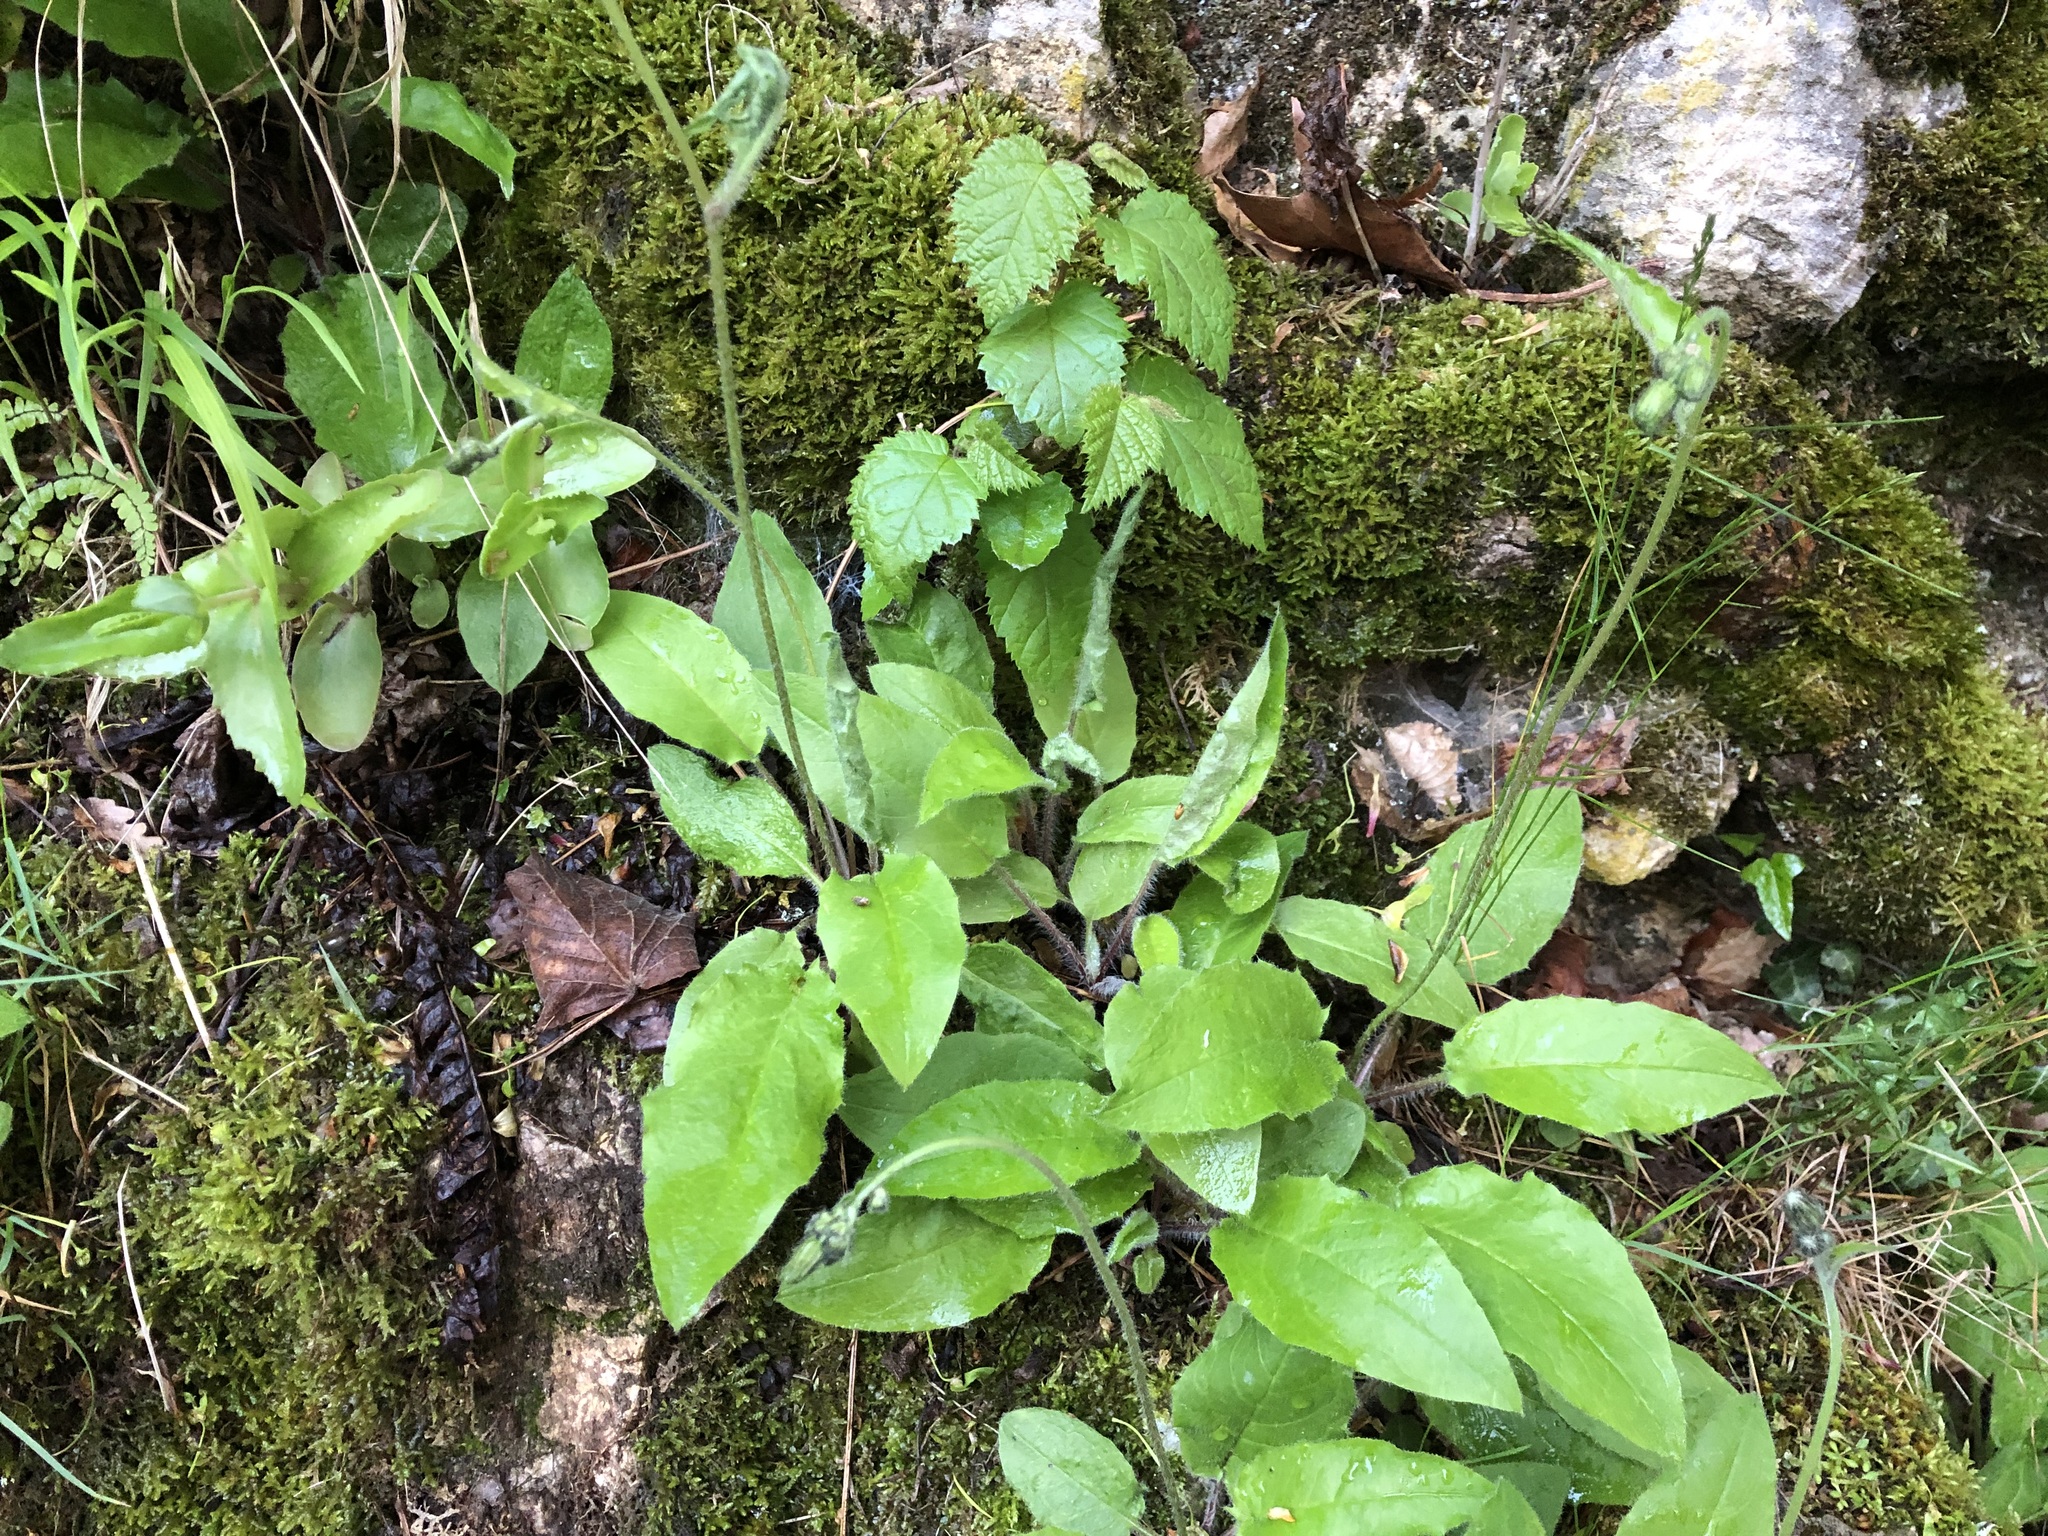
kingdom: Plantae
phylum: Tracheophyta
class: Magnoliopsida
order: Asterales
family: Asteraceae
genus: Hieracium
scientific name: Hieracium murorum
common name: Wall hawkweed
